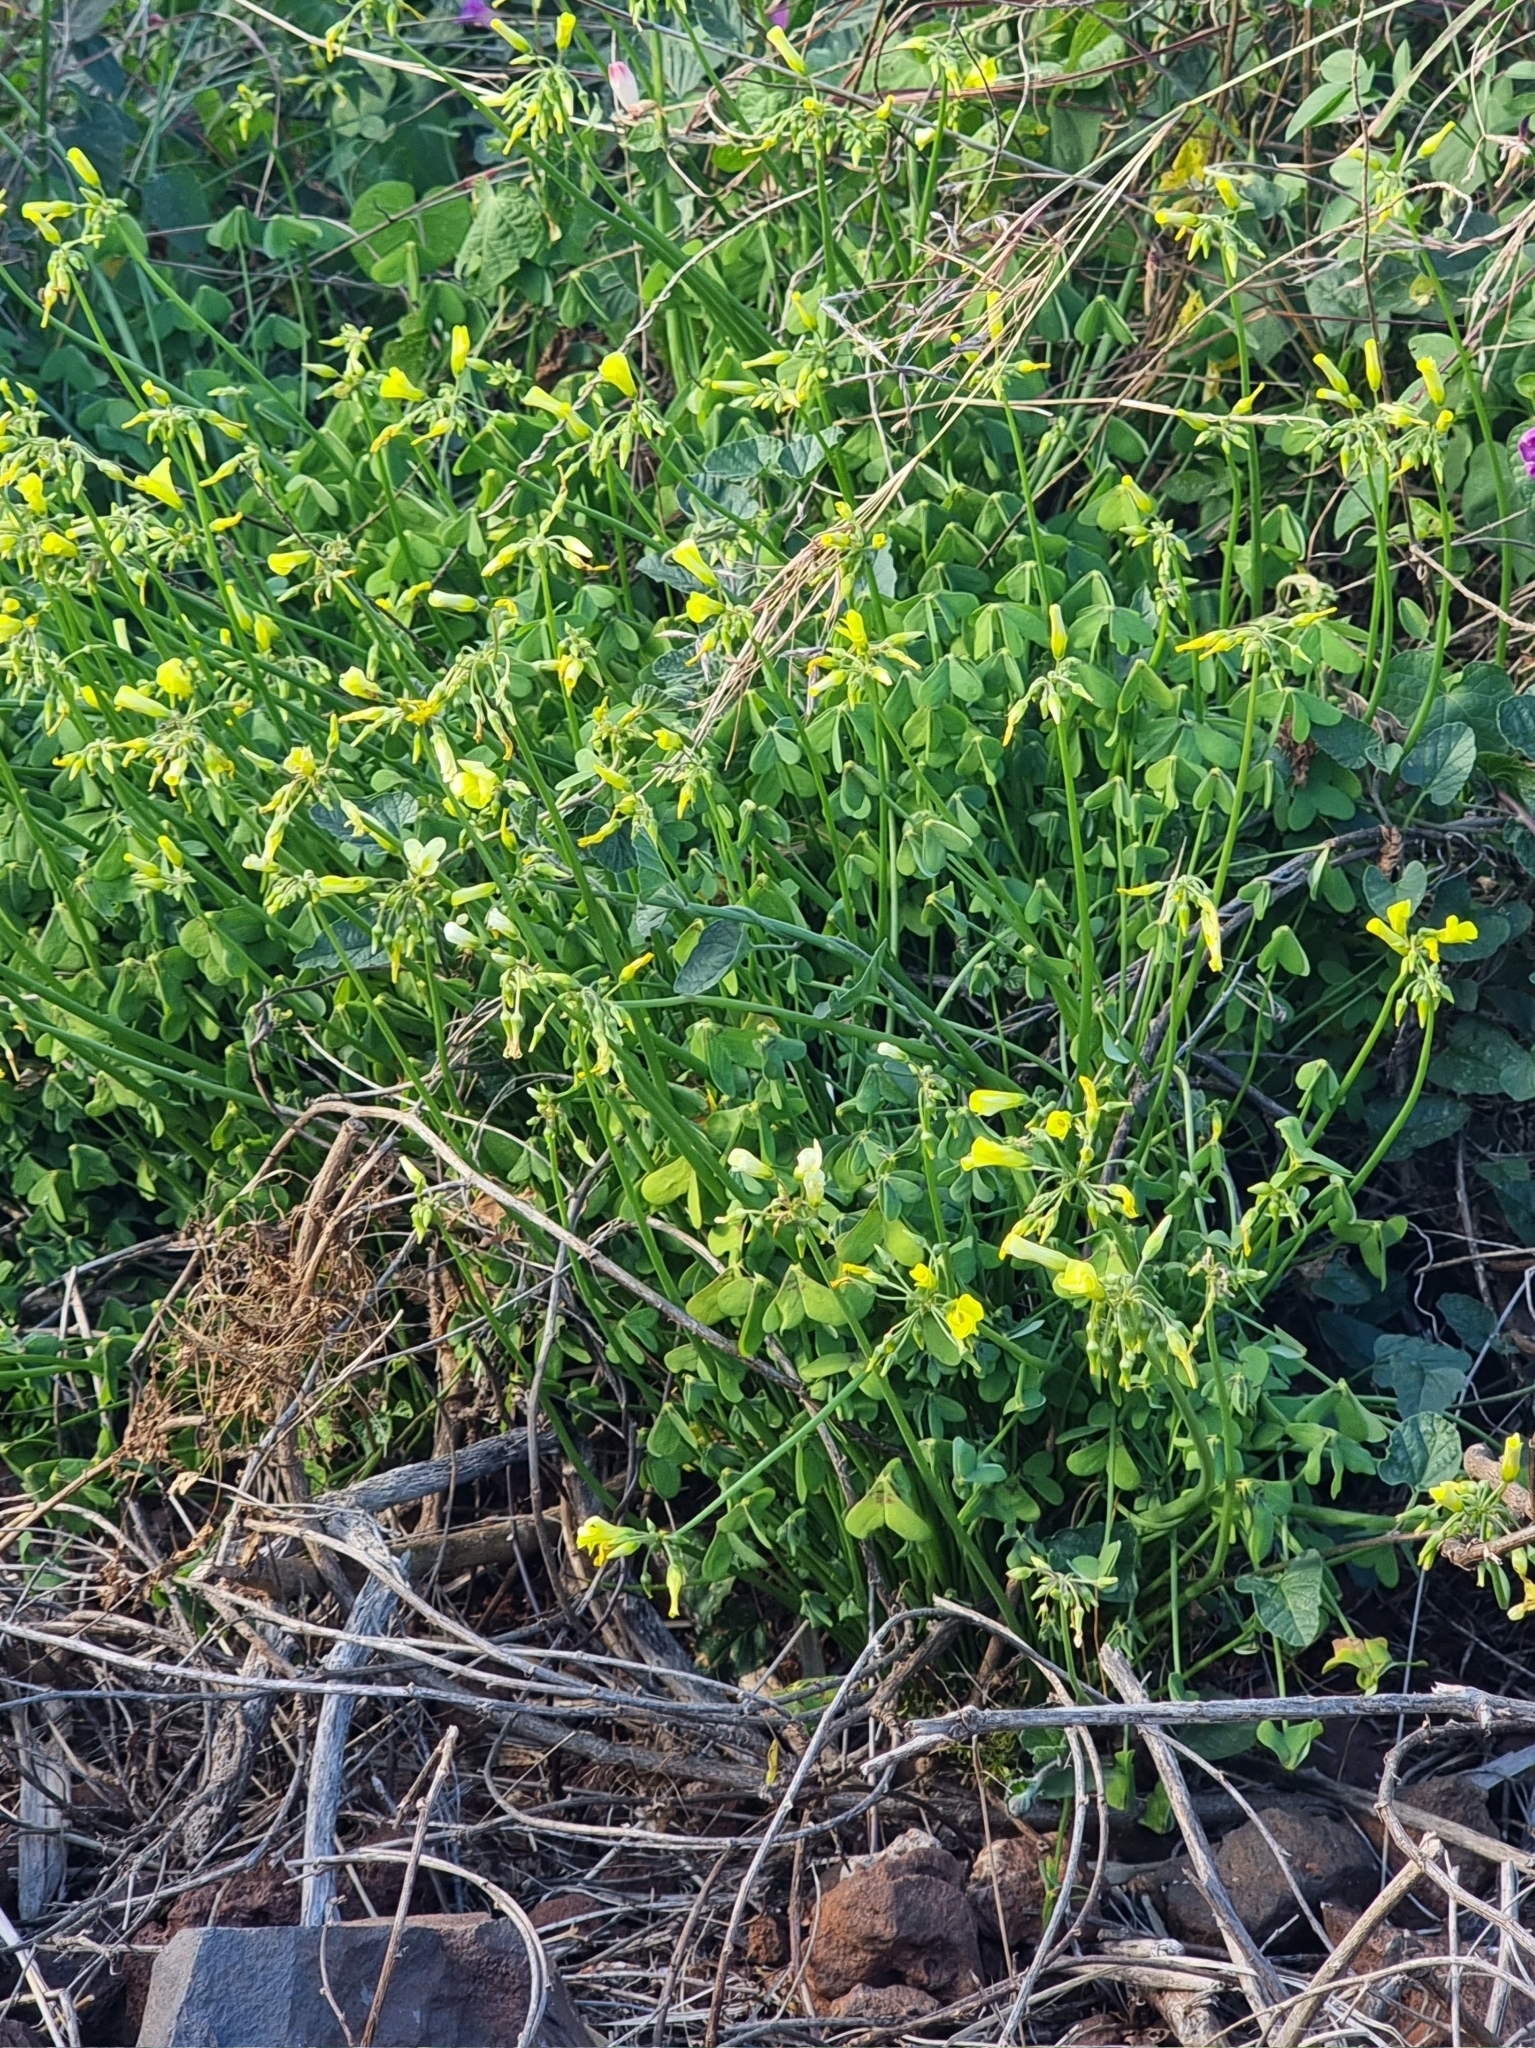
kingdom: Plantae
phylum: Tracheophyta
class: Magnoliopsida
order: Oxalidales
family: Oxalidaceae
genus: Oxalis
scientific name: Oxalis pes-caprae
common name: Bermuda-buttercup
